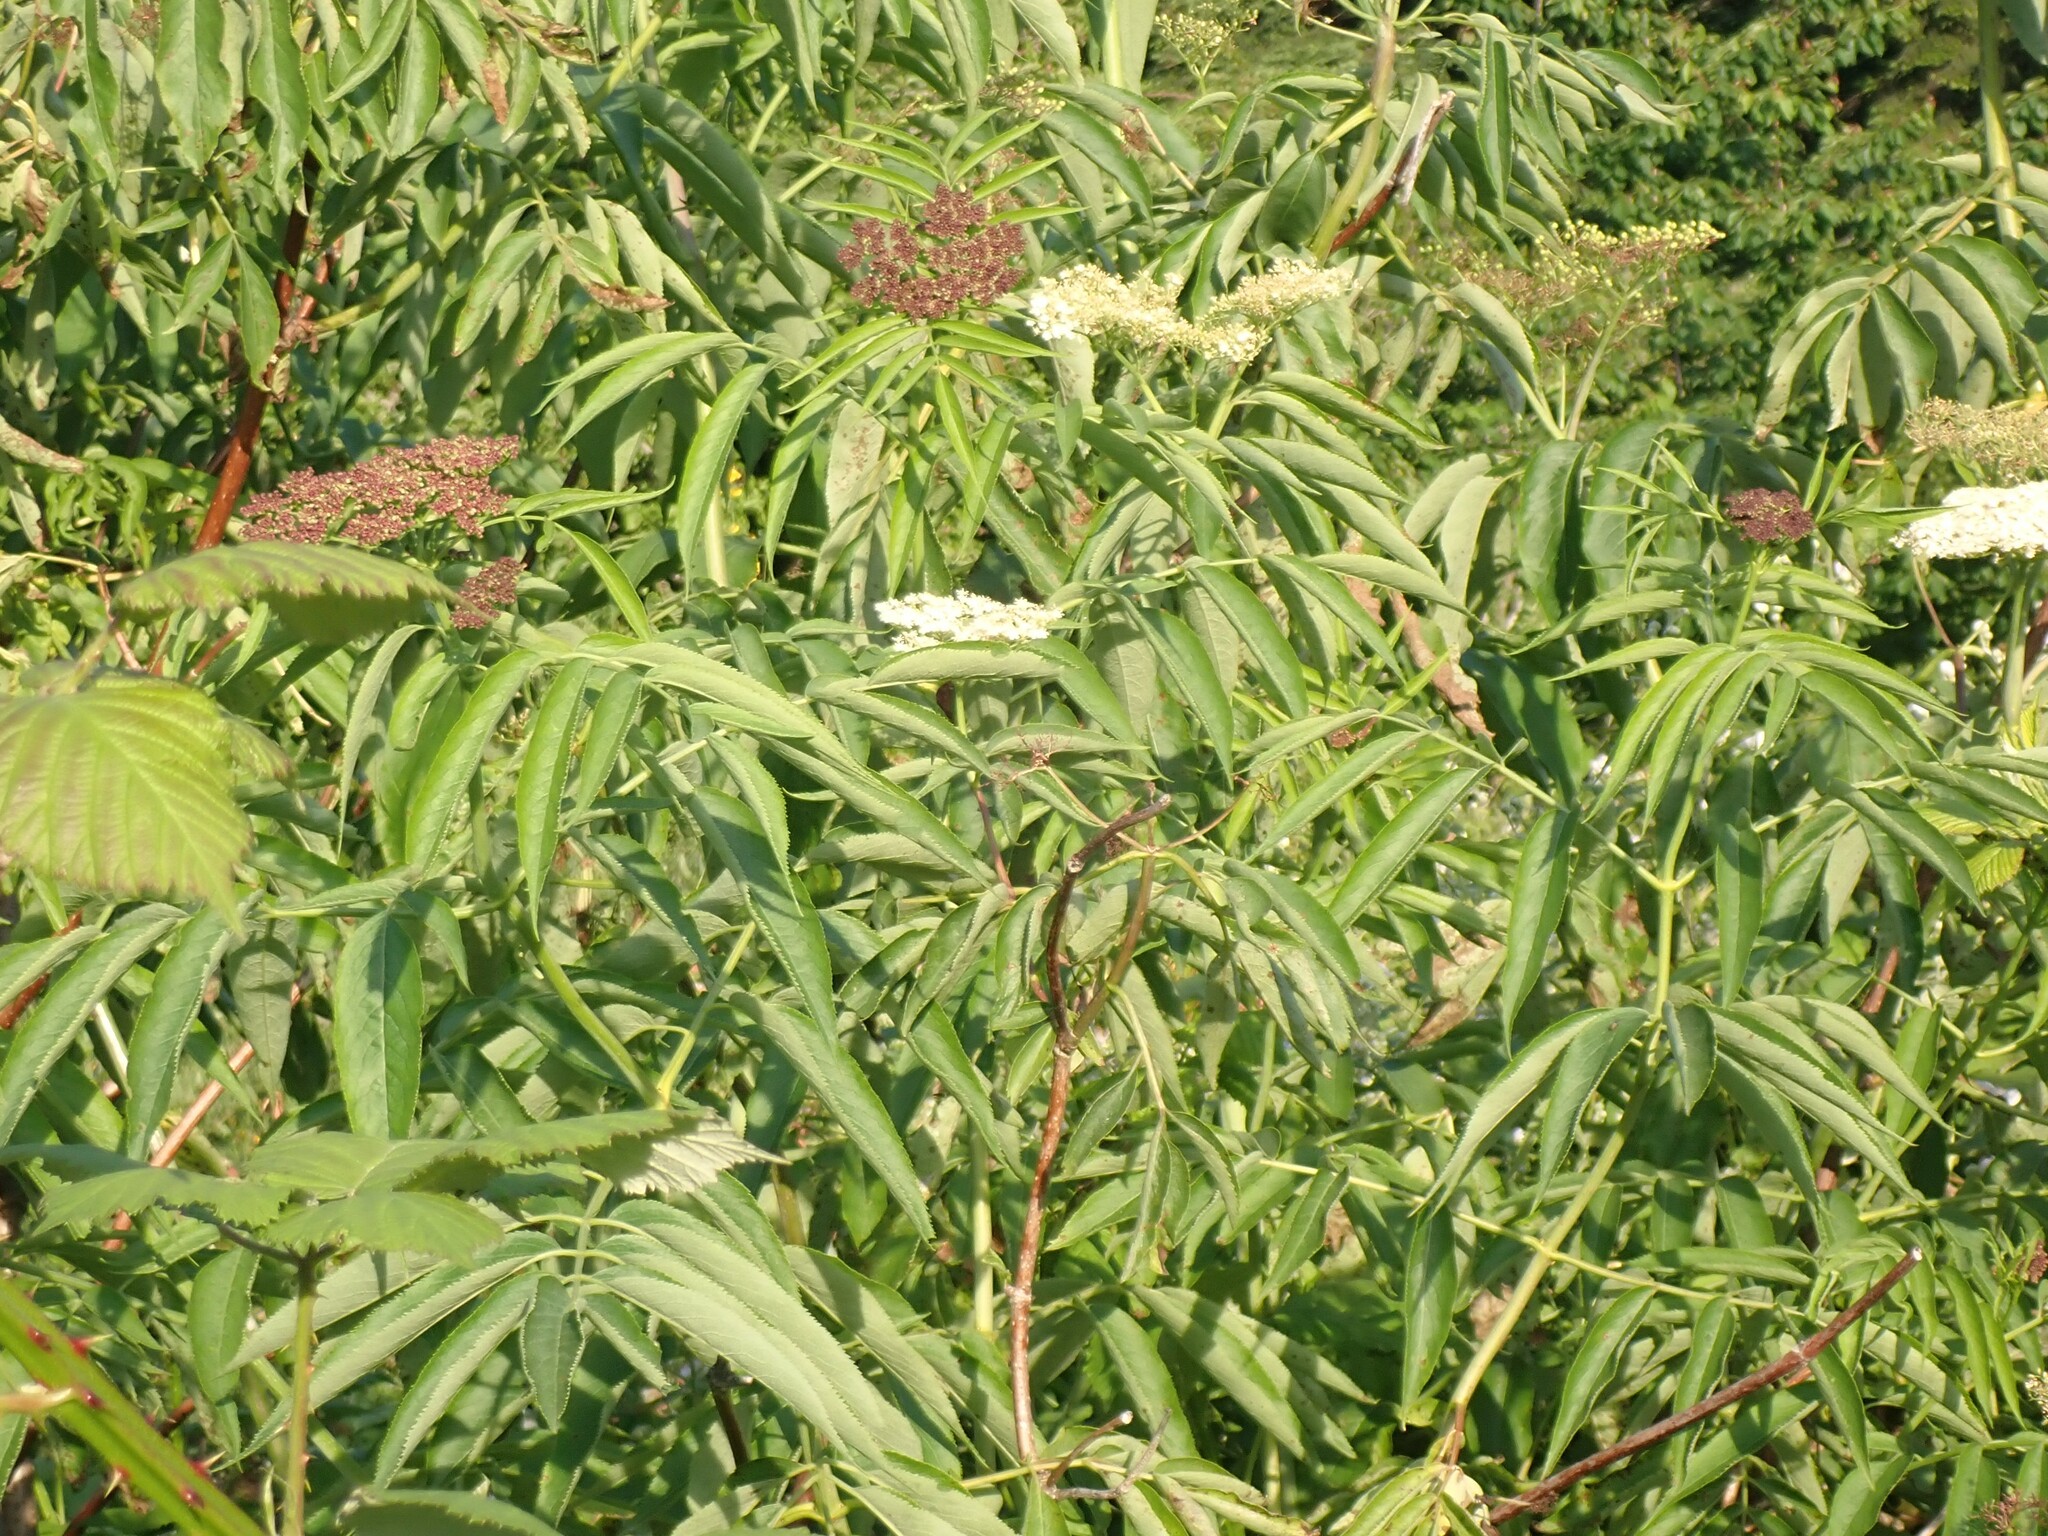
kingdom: Plantae
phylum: Tracheophyta
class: Magnoliopsida
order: Dipsacales
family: Viburnaceae
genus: Sambucus
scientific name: Sambucus cerulea
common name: Blue elder
